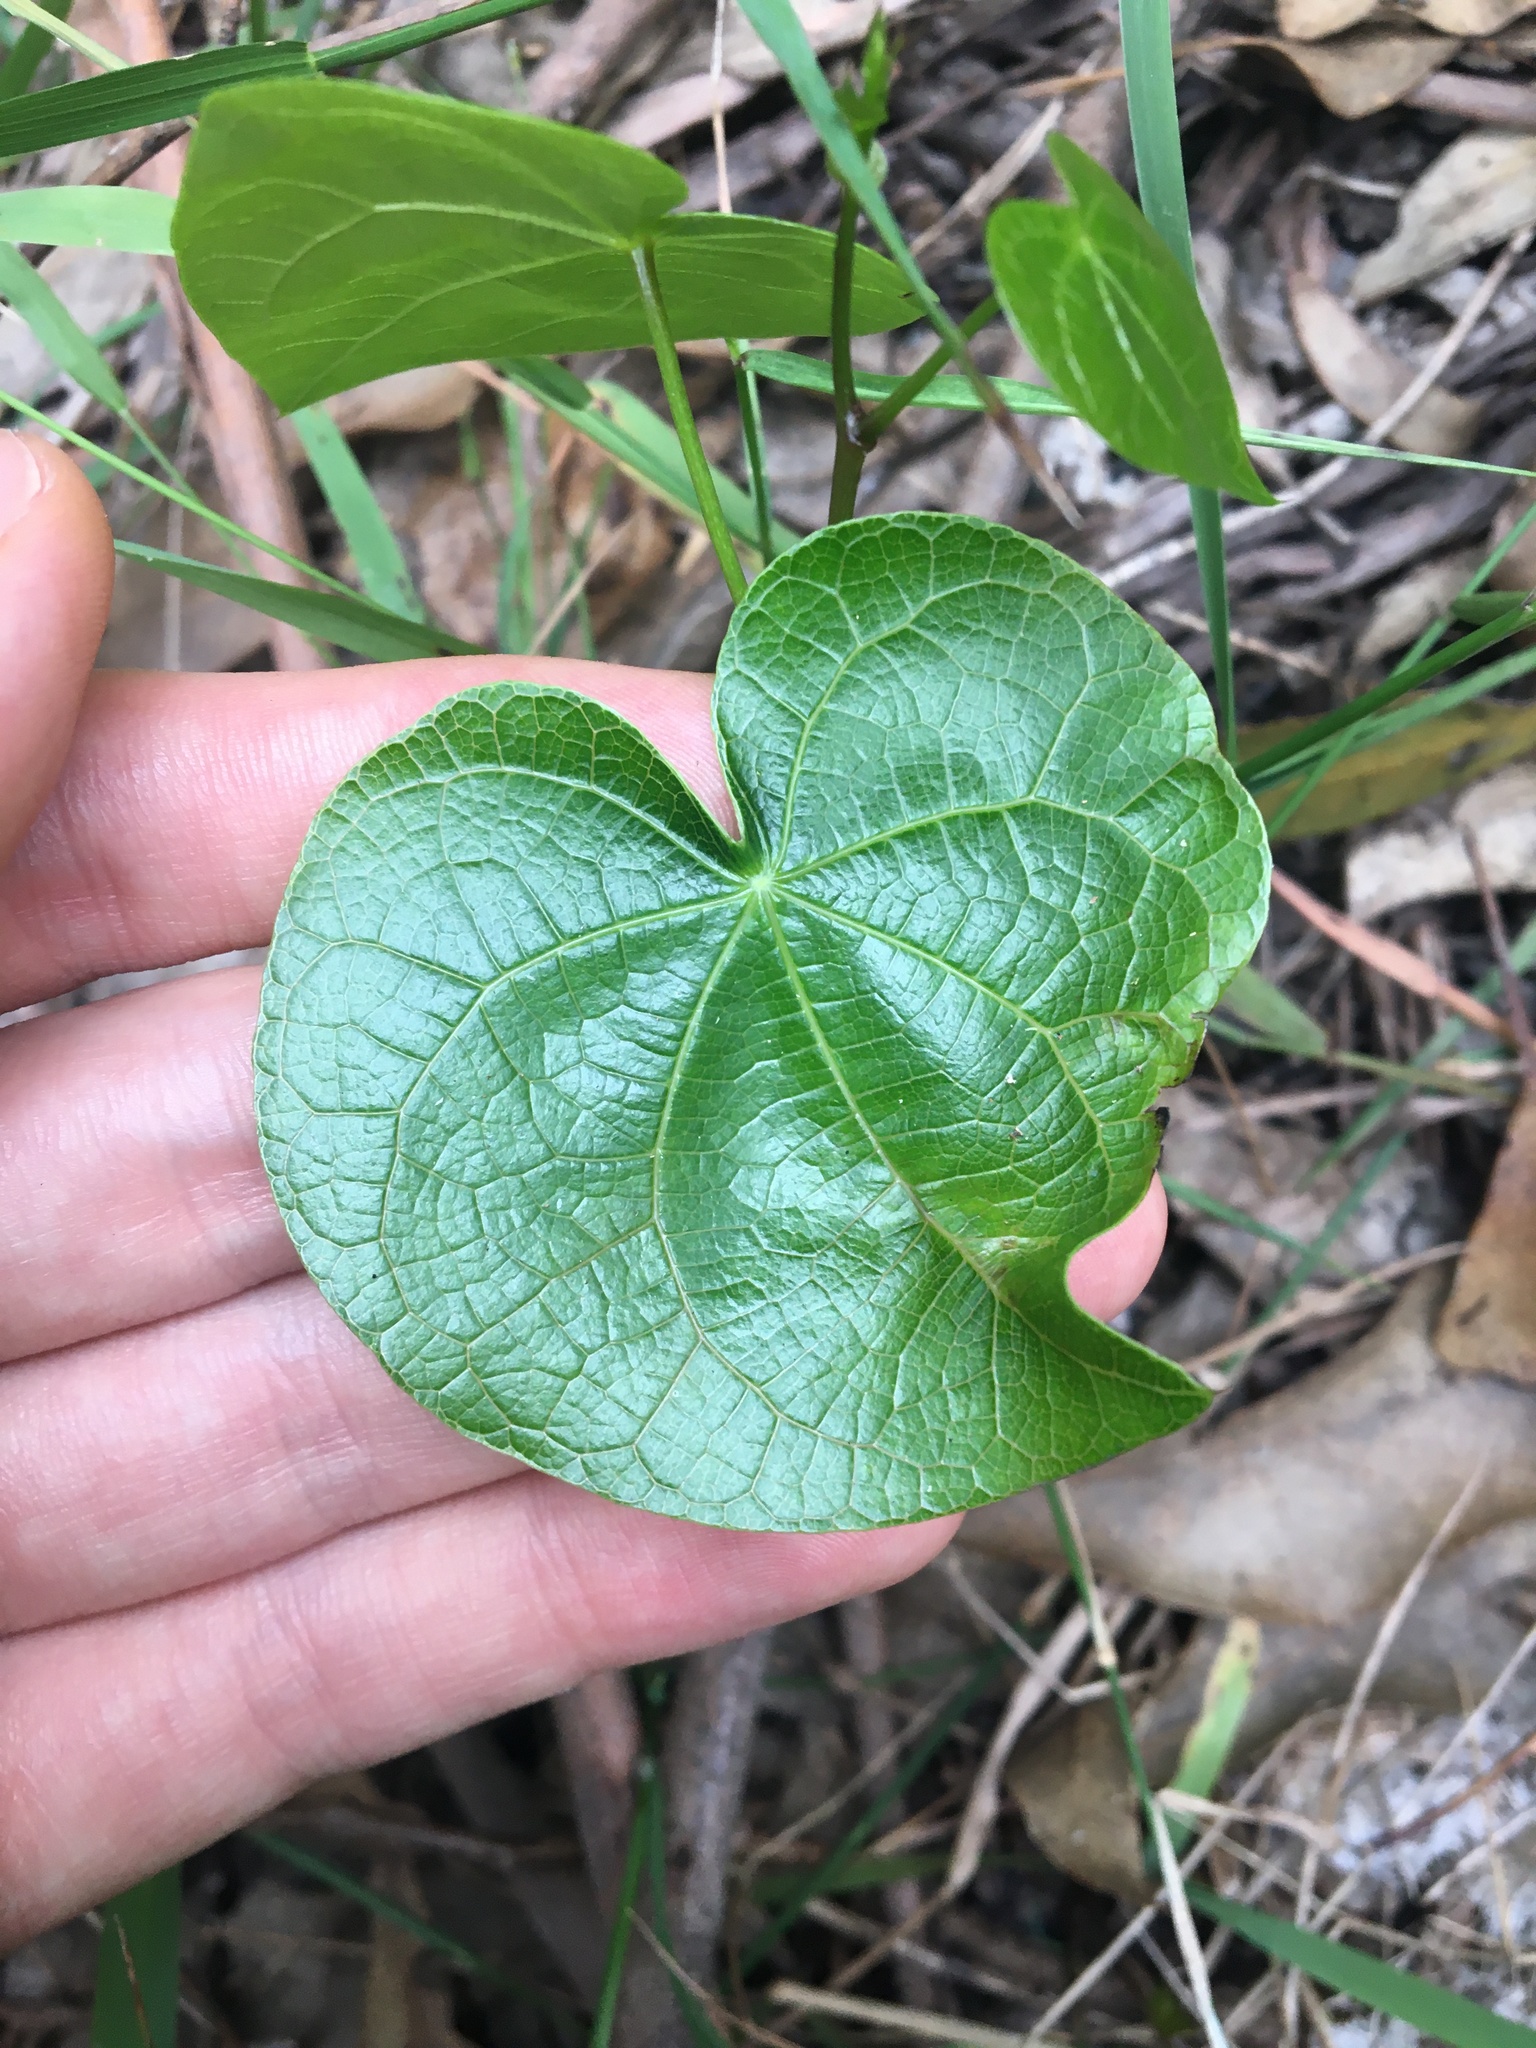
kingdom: Plantae
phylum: Tracheophyta
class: Magnoliopsida
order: Ranunculales
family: Menispermaceae
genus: Sarcopetalum
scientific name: Sarcopetalum harveyanum
